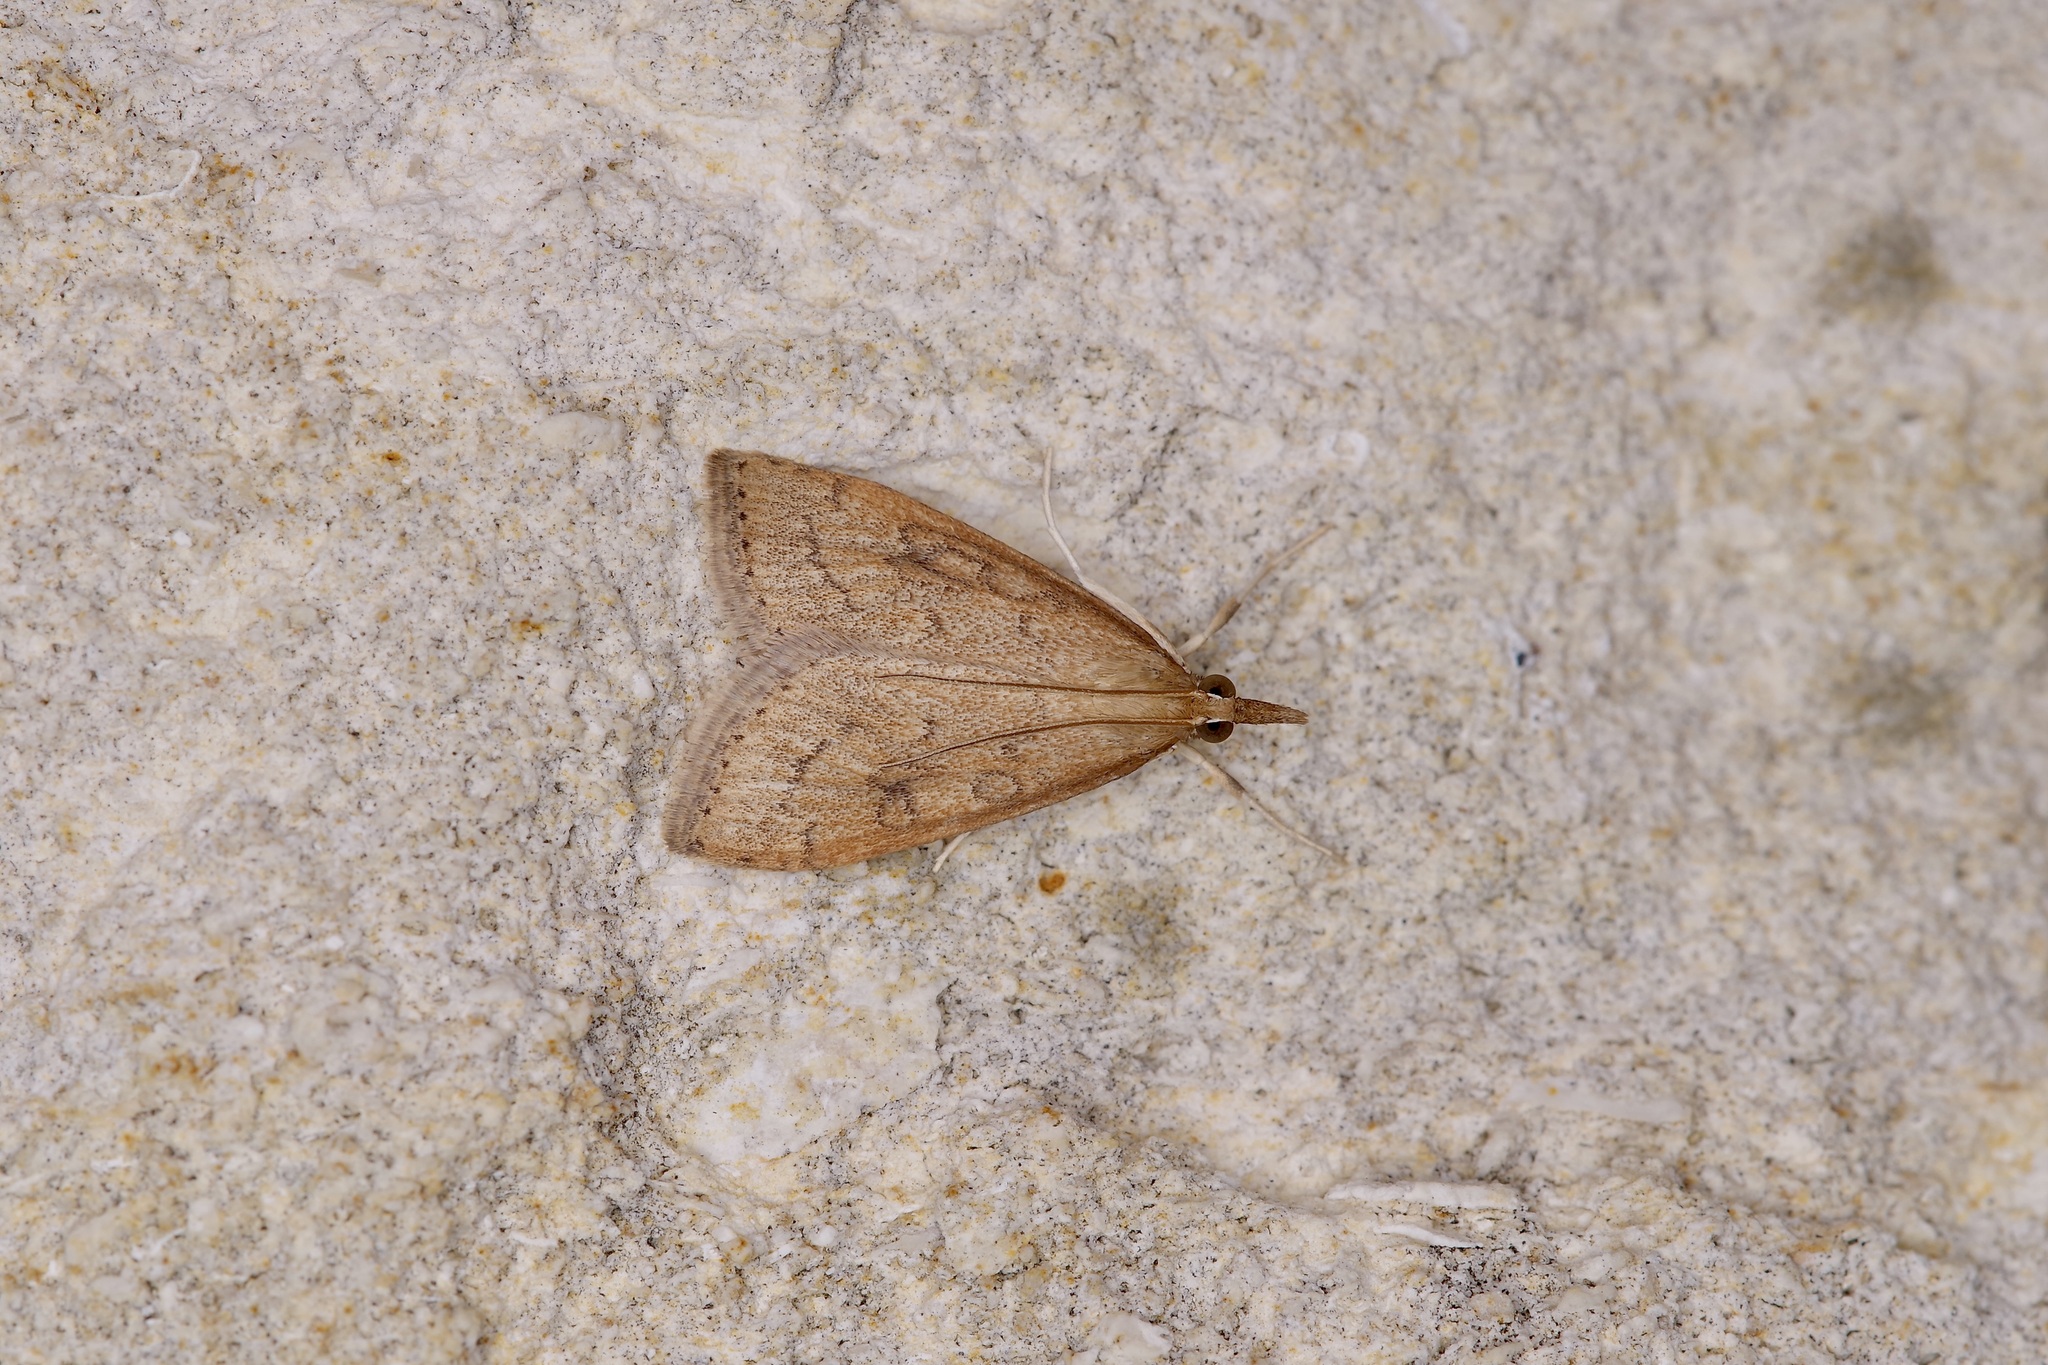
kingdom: Animalia
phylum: Arthropoda
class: Insecta
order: Lepidoptera
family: Crambidae
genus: Udea
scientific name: Udea rubigalis
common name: Celery leaftier moth
